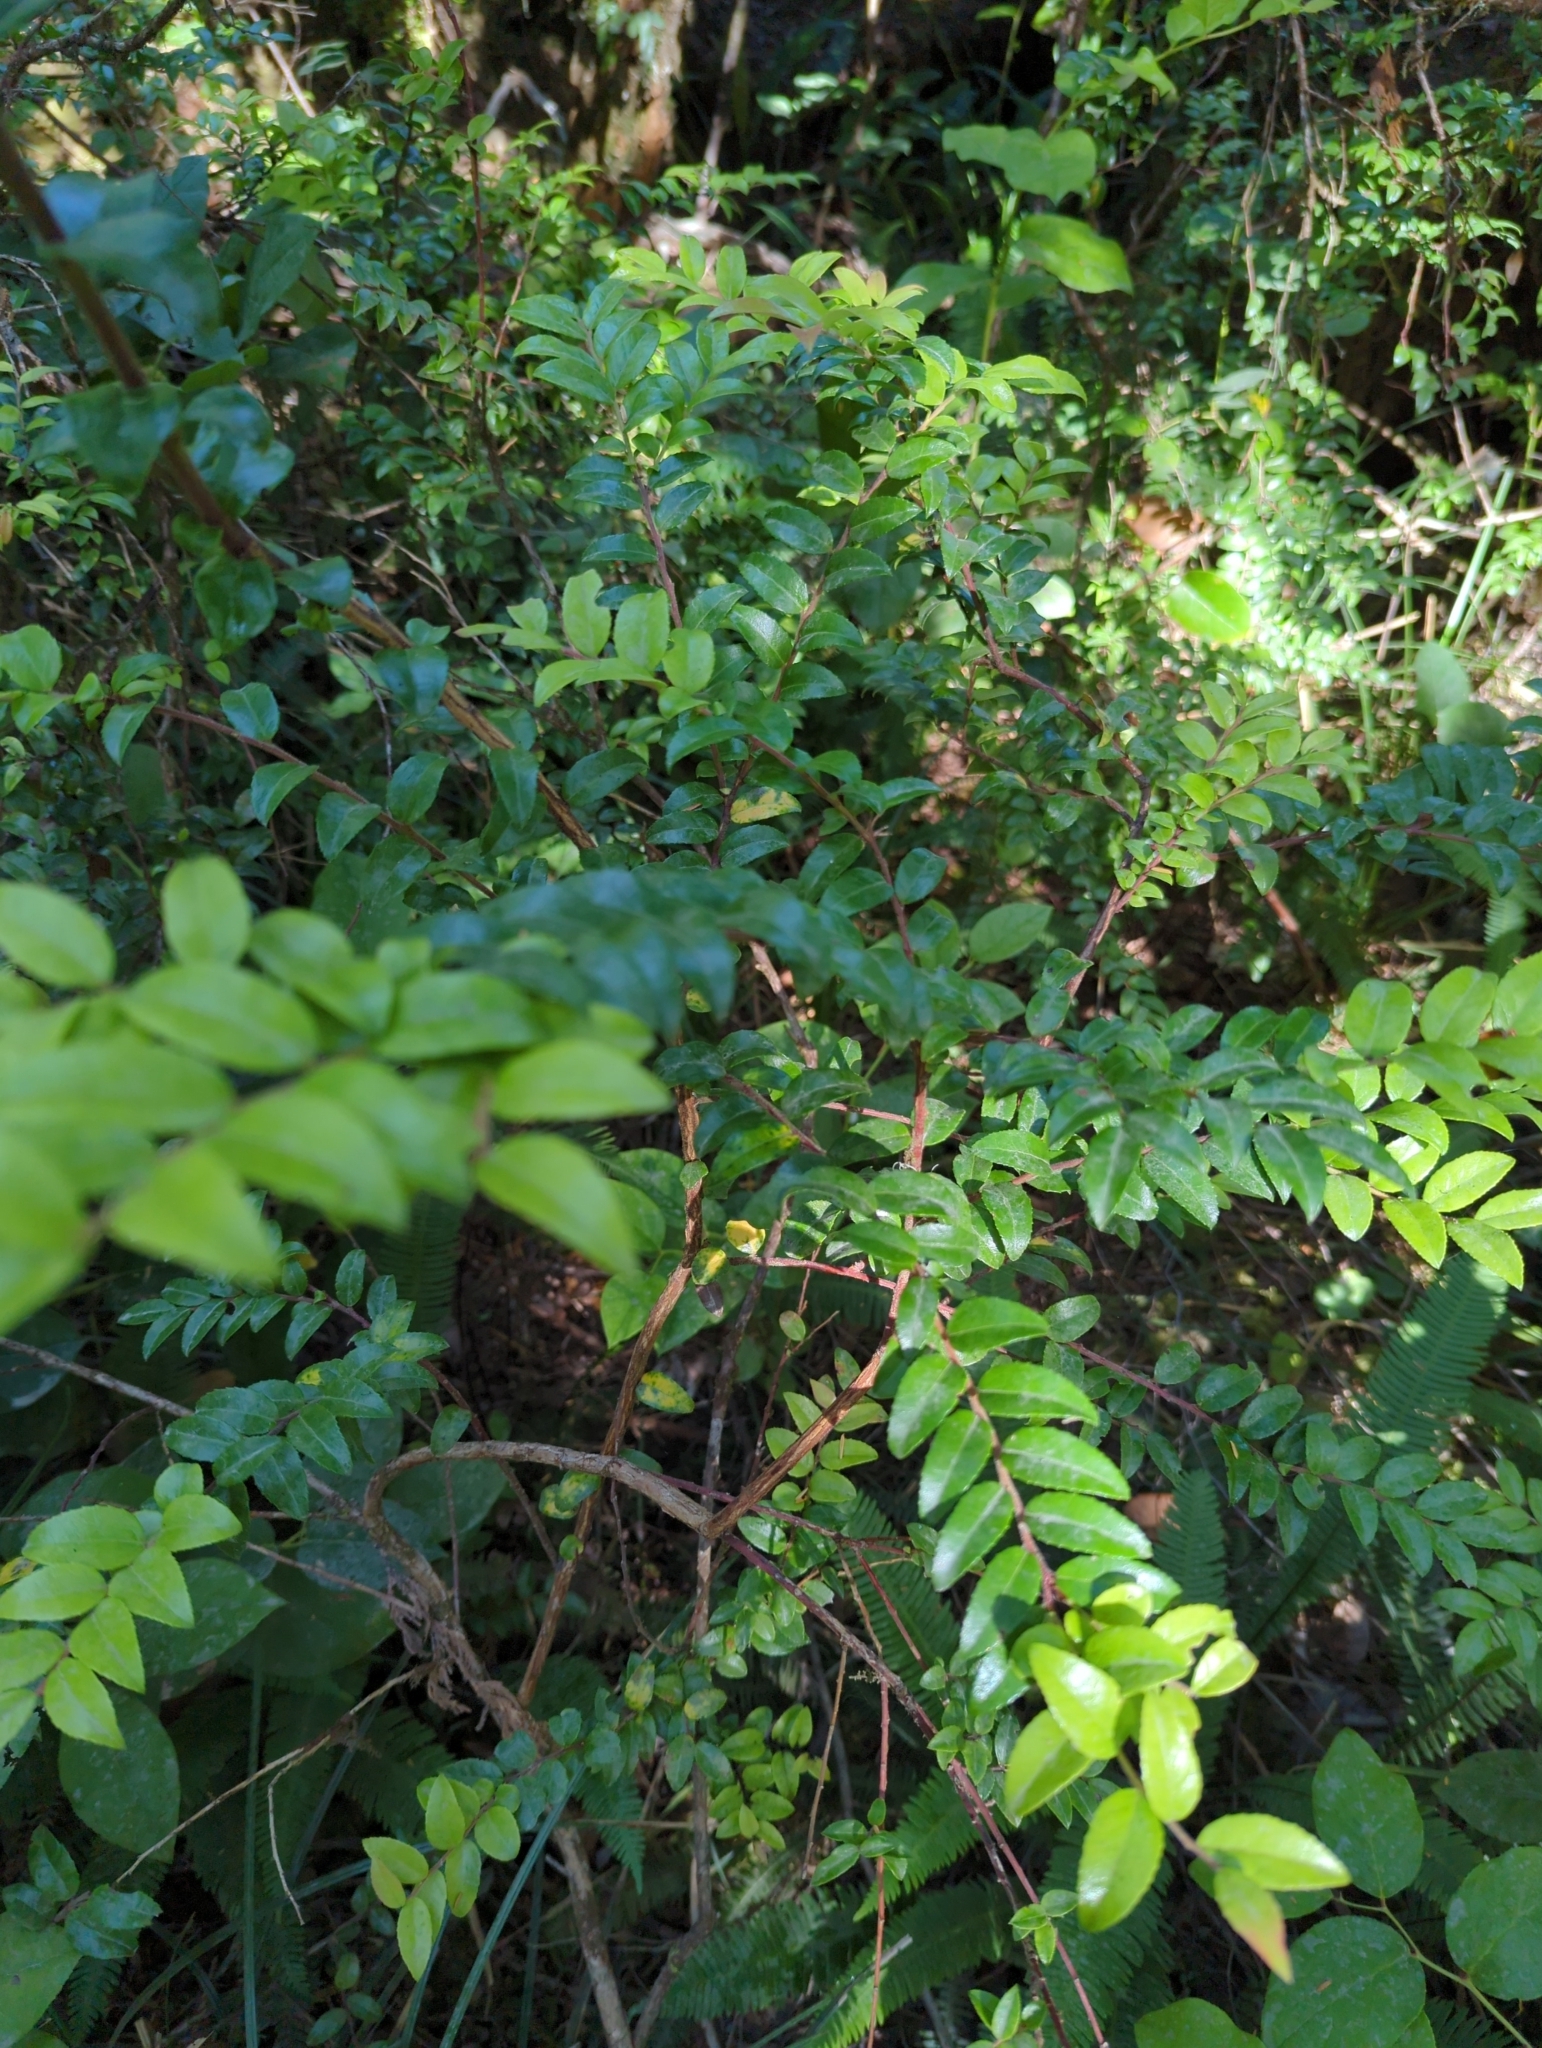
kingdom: Plantae
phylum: Tracheophyta
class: Magnoliopsida
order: Ericales
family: Ericaceae
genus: Vaccinium
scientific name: Vaccinium ovatum
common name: California-huckleberry
